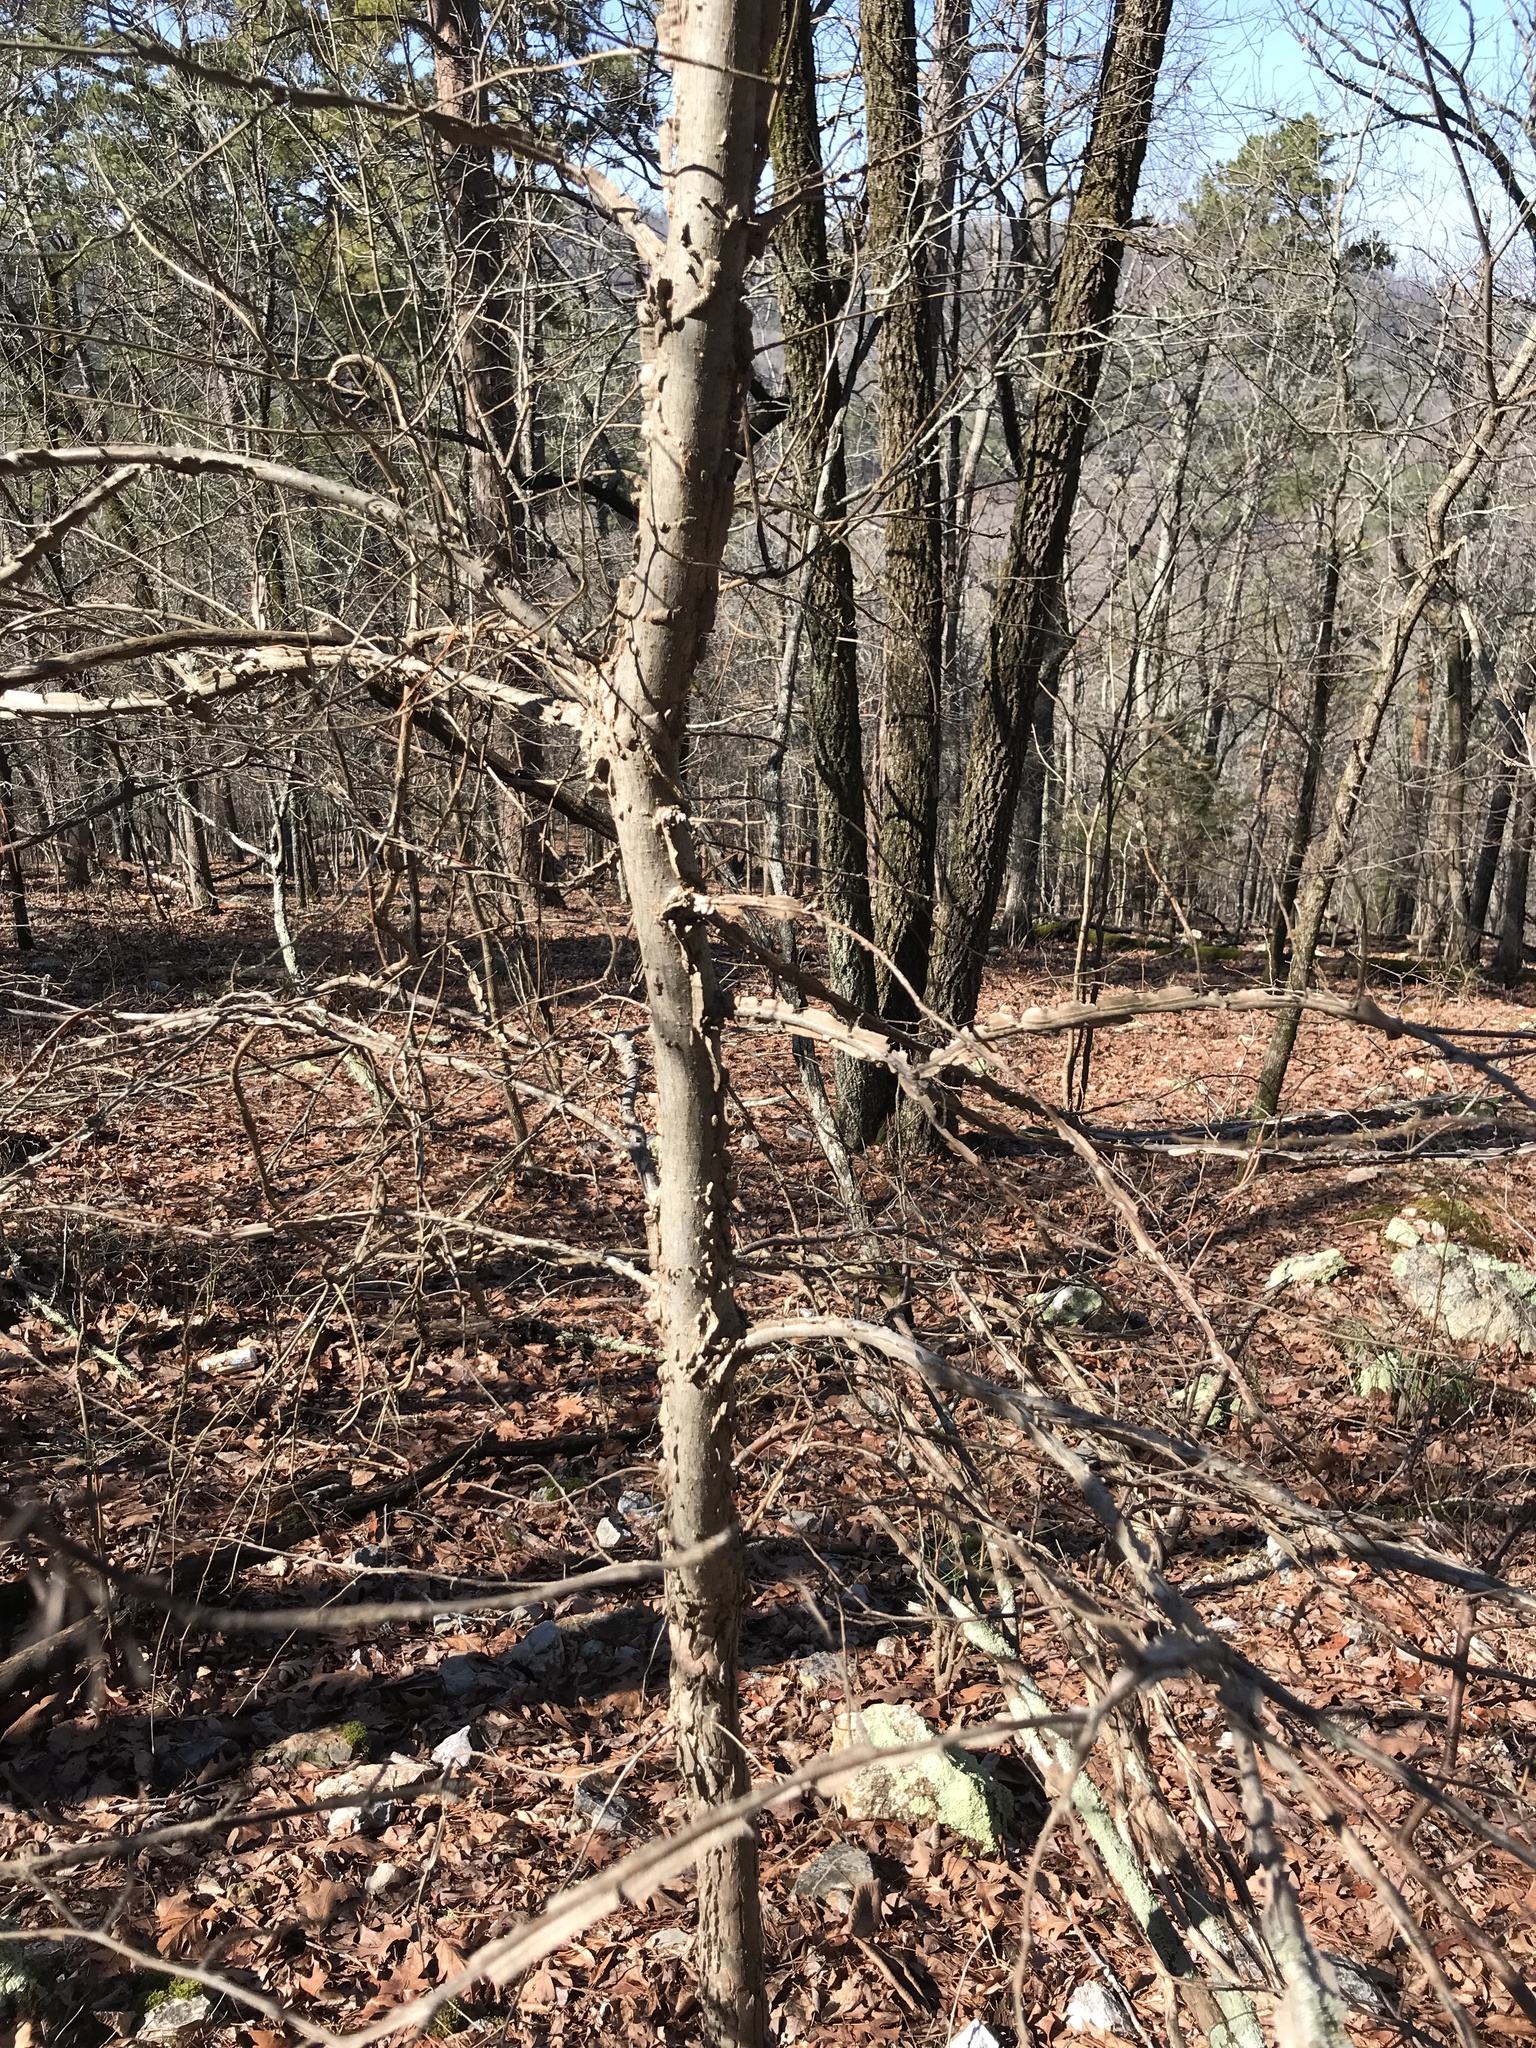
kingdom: Plantae
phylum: Tracheophyta
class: Magnoliopsida
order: Rosales
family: Ulmaceae
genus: Ulmus
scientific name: Ulmus alata
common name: Winged elm
